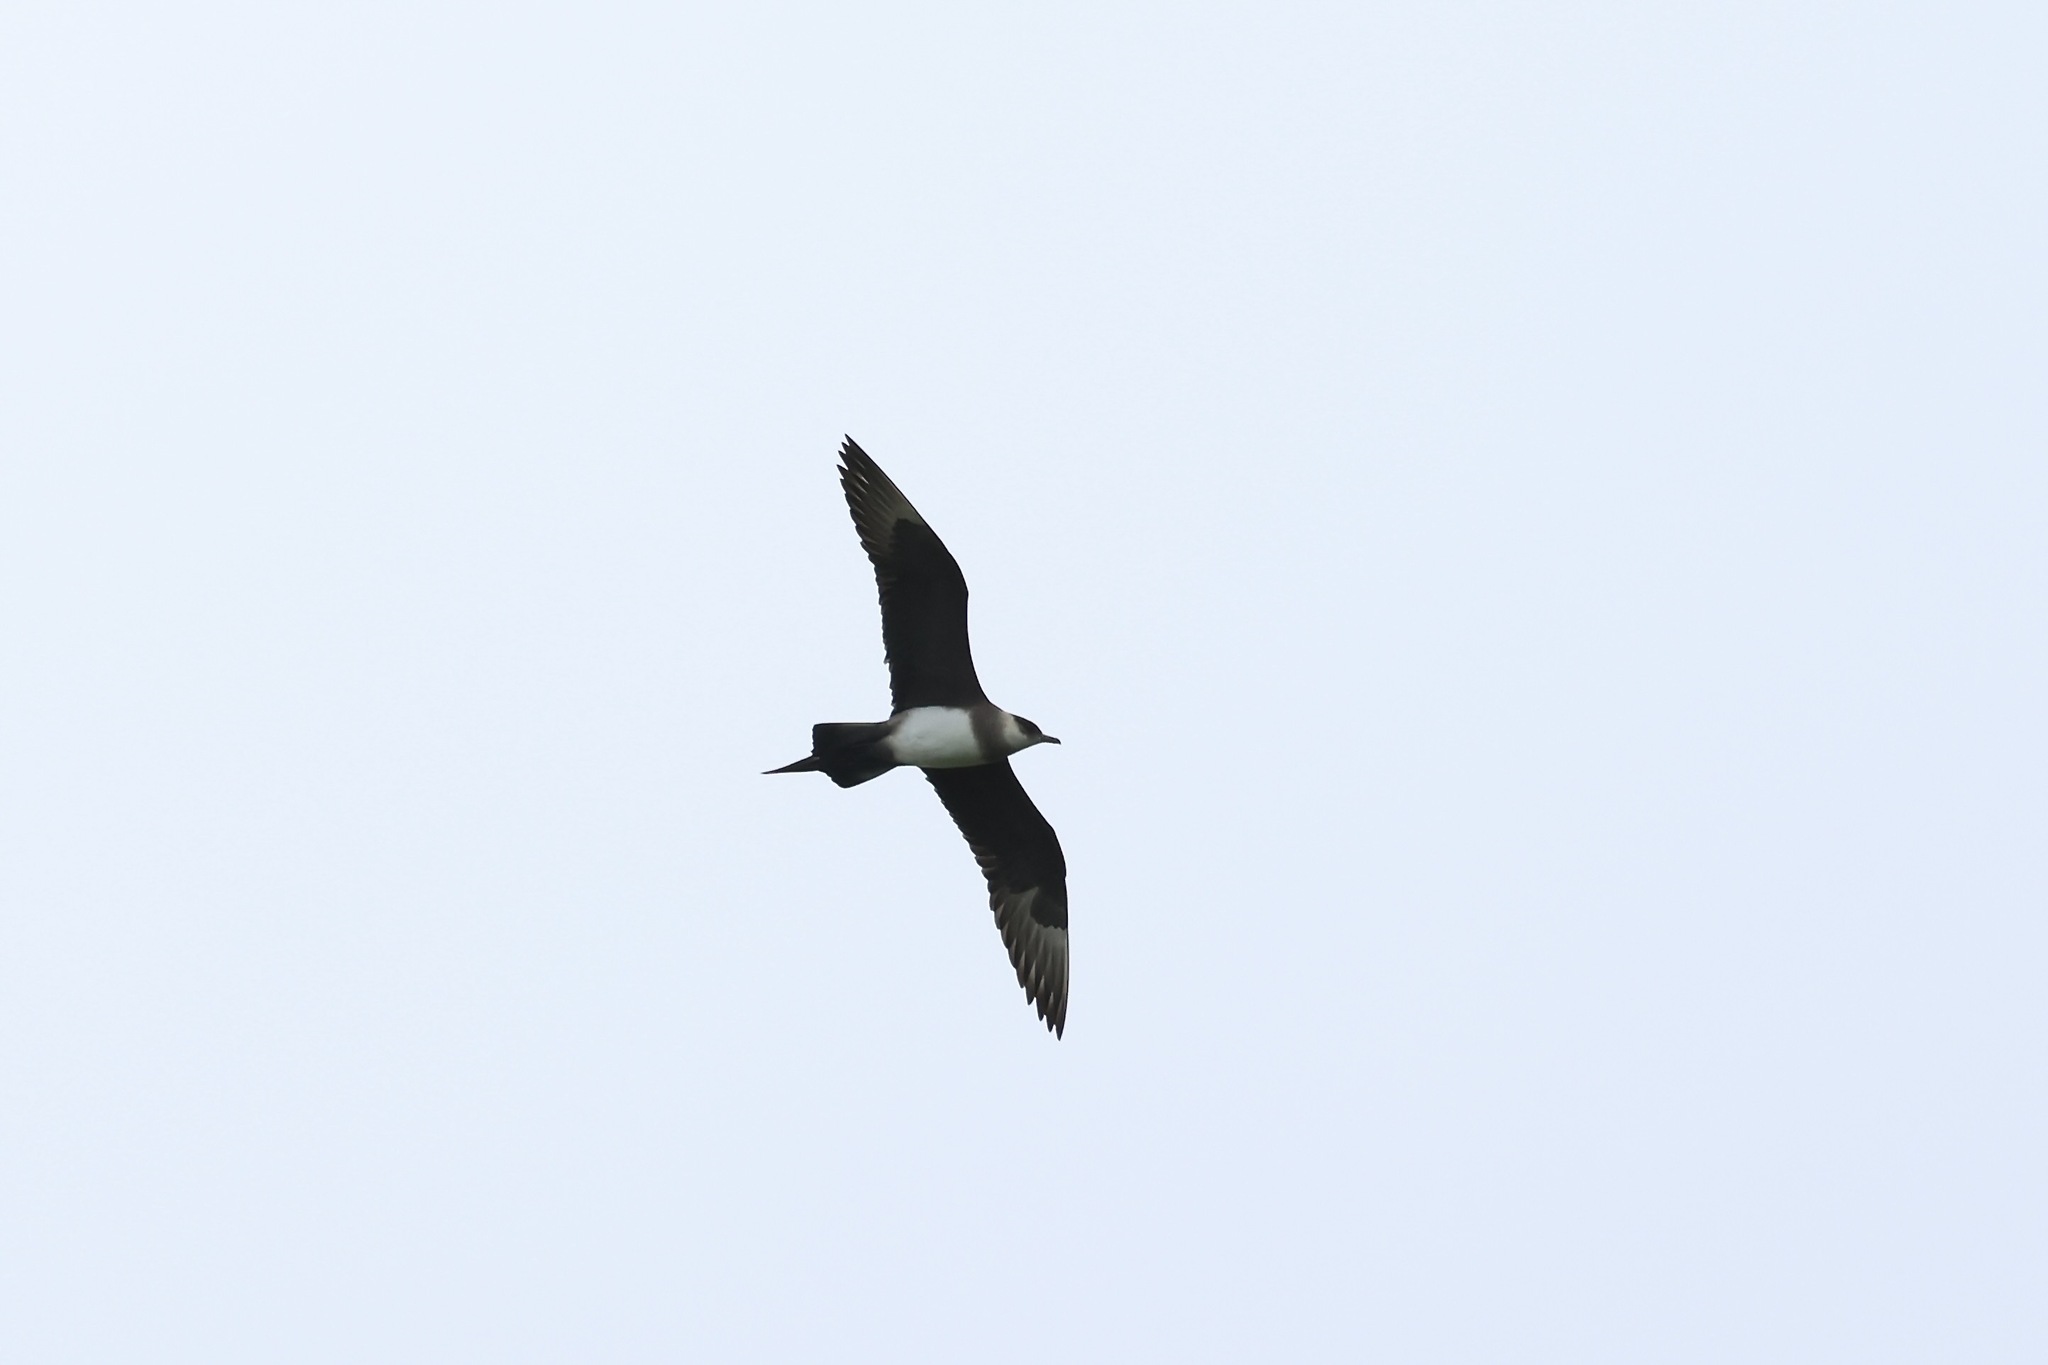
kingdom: Animalia
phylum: Chordata
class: Aves
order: Charadriiformes
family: Stercorariidae
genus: Stercorarius
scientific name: Stercorarius parasiticus
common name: Parasitic jaeger
